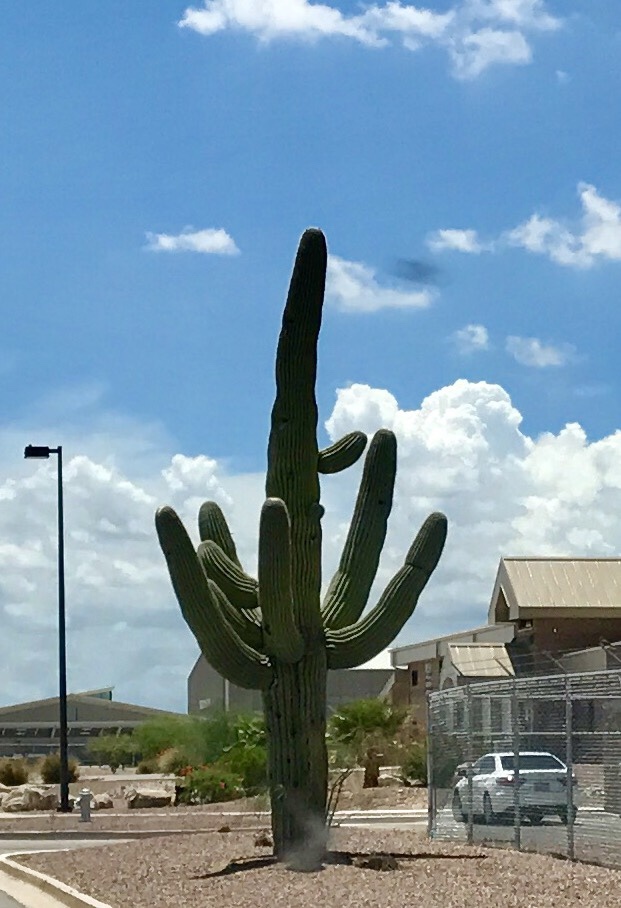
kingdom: Plantae
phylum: Tracheophyta
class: Magnoliopsida
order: Caryophyllales
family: Cactaceae
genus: Carnegiea
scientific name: Carnegiea gigantea
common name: Saguaro
